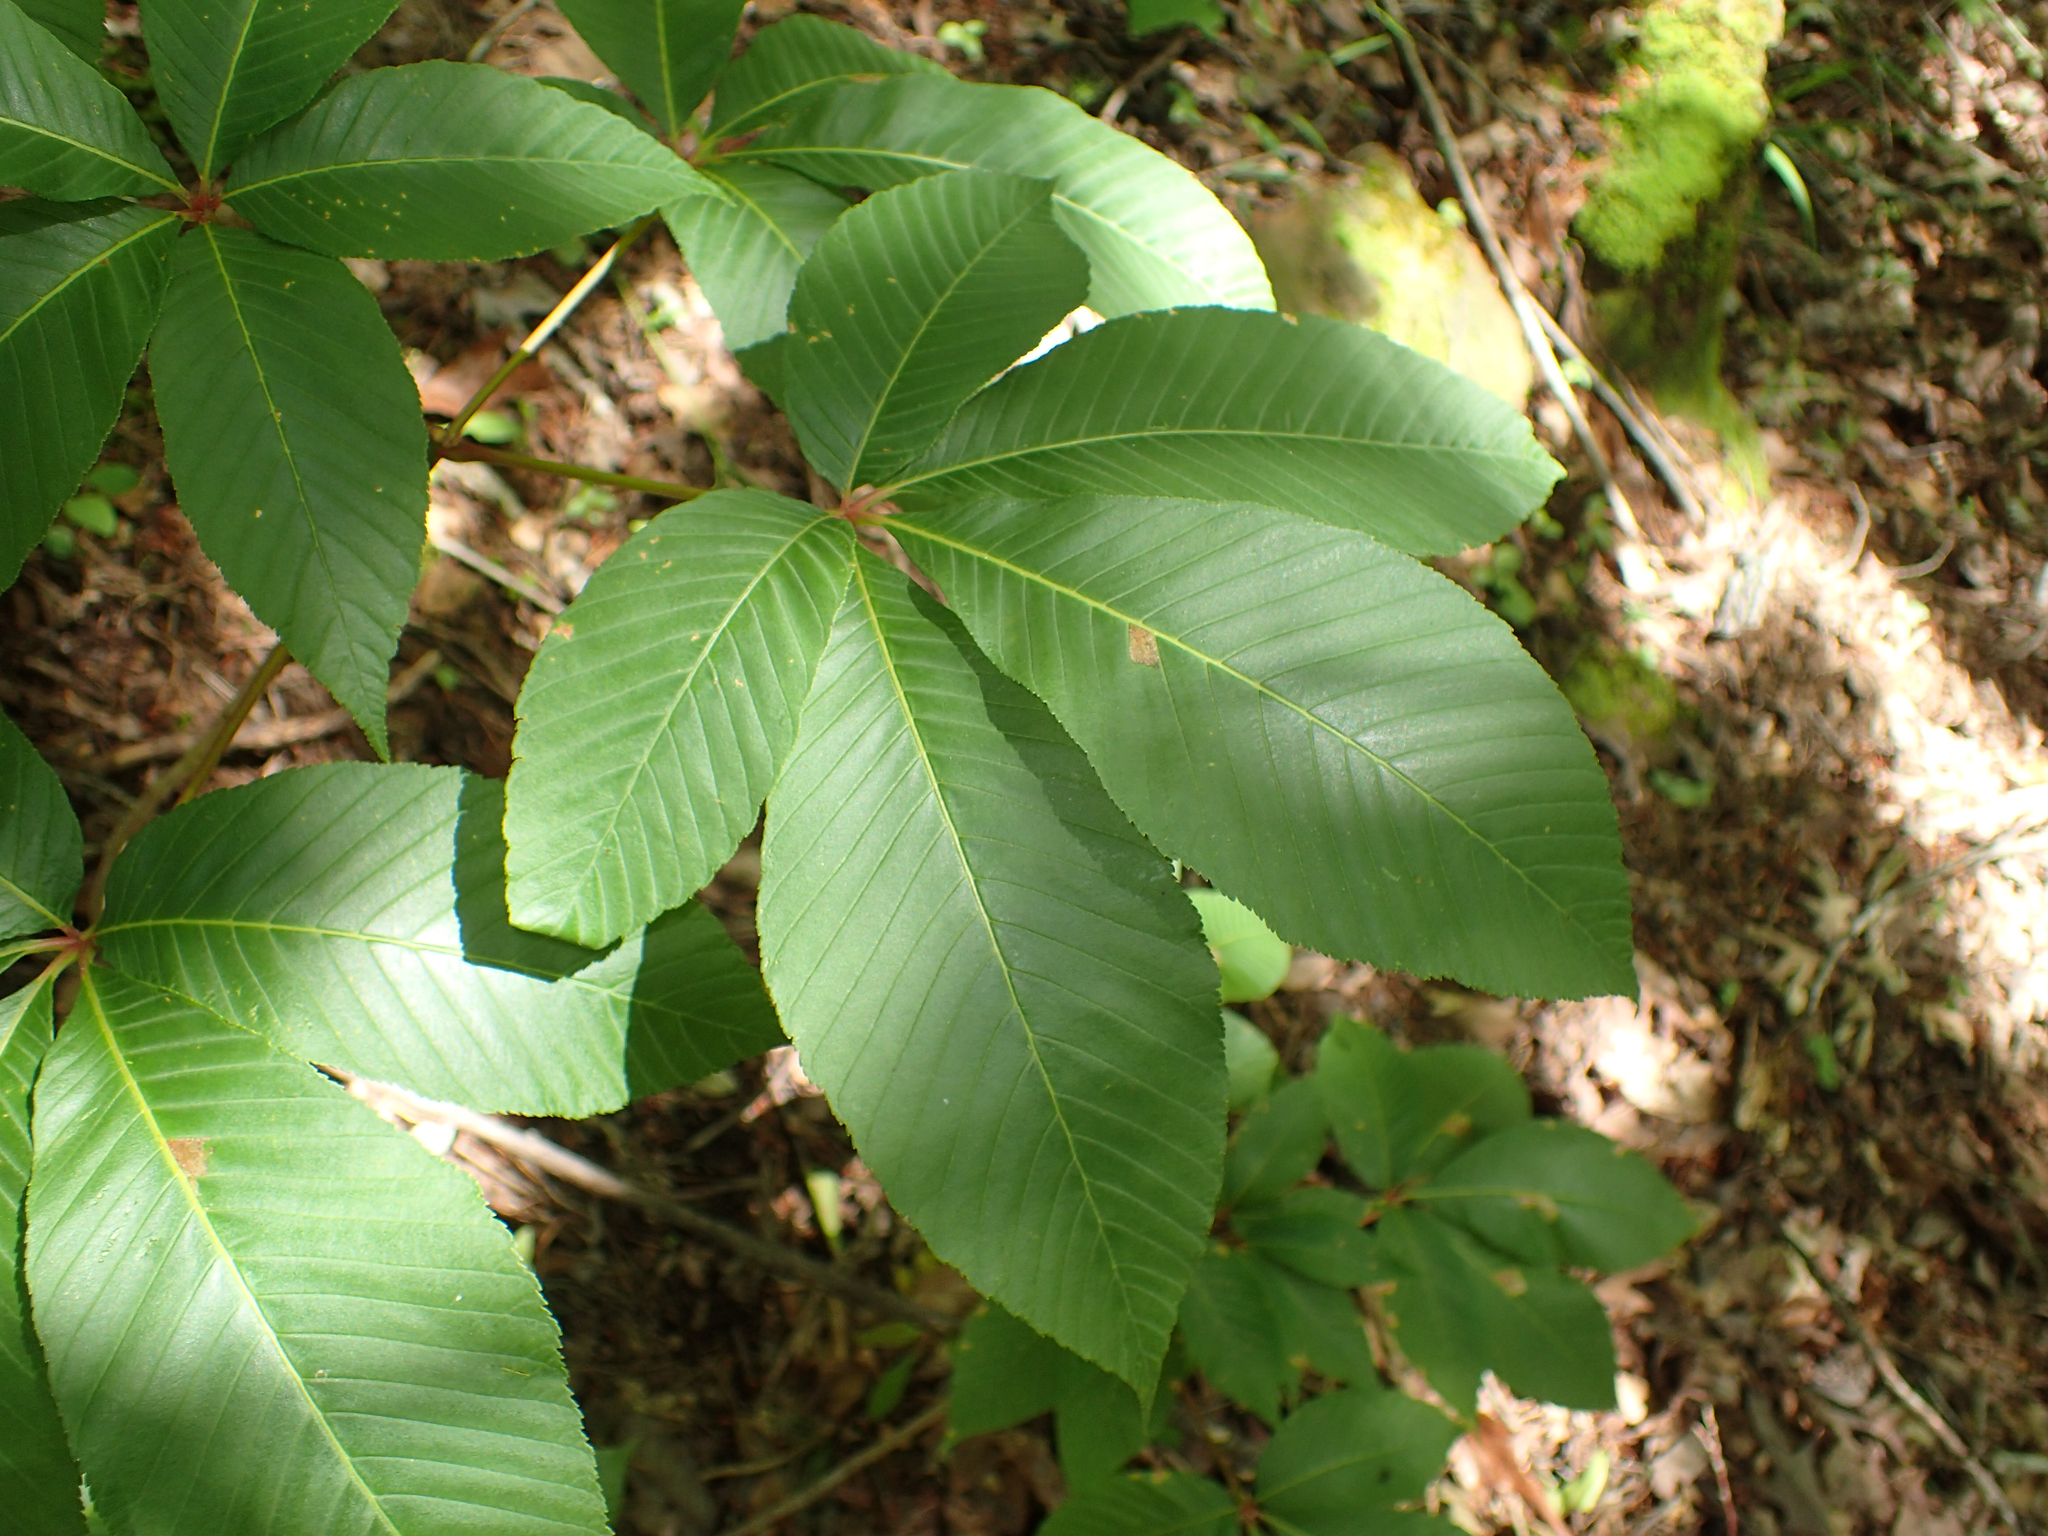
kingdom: Plantae
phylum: Tracheophyta
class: Magnoliopsida
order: Sapindales
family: Sapindaceae
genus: Aesculus
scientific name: Aesculus pavia
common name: Red buckeye
